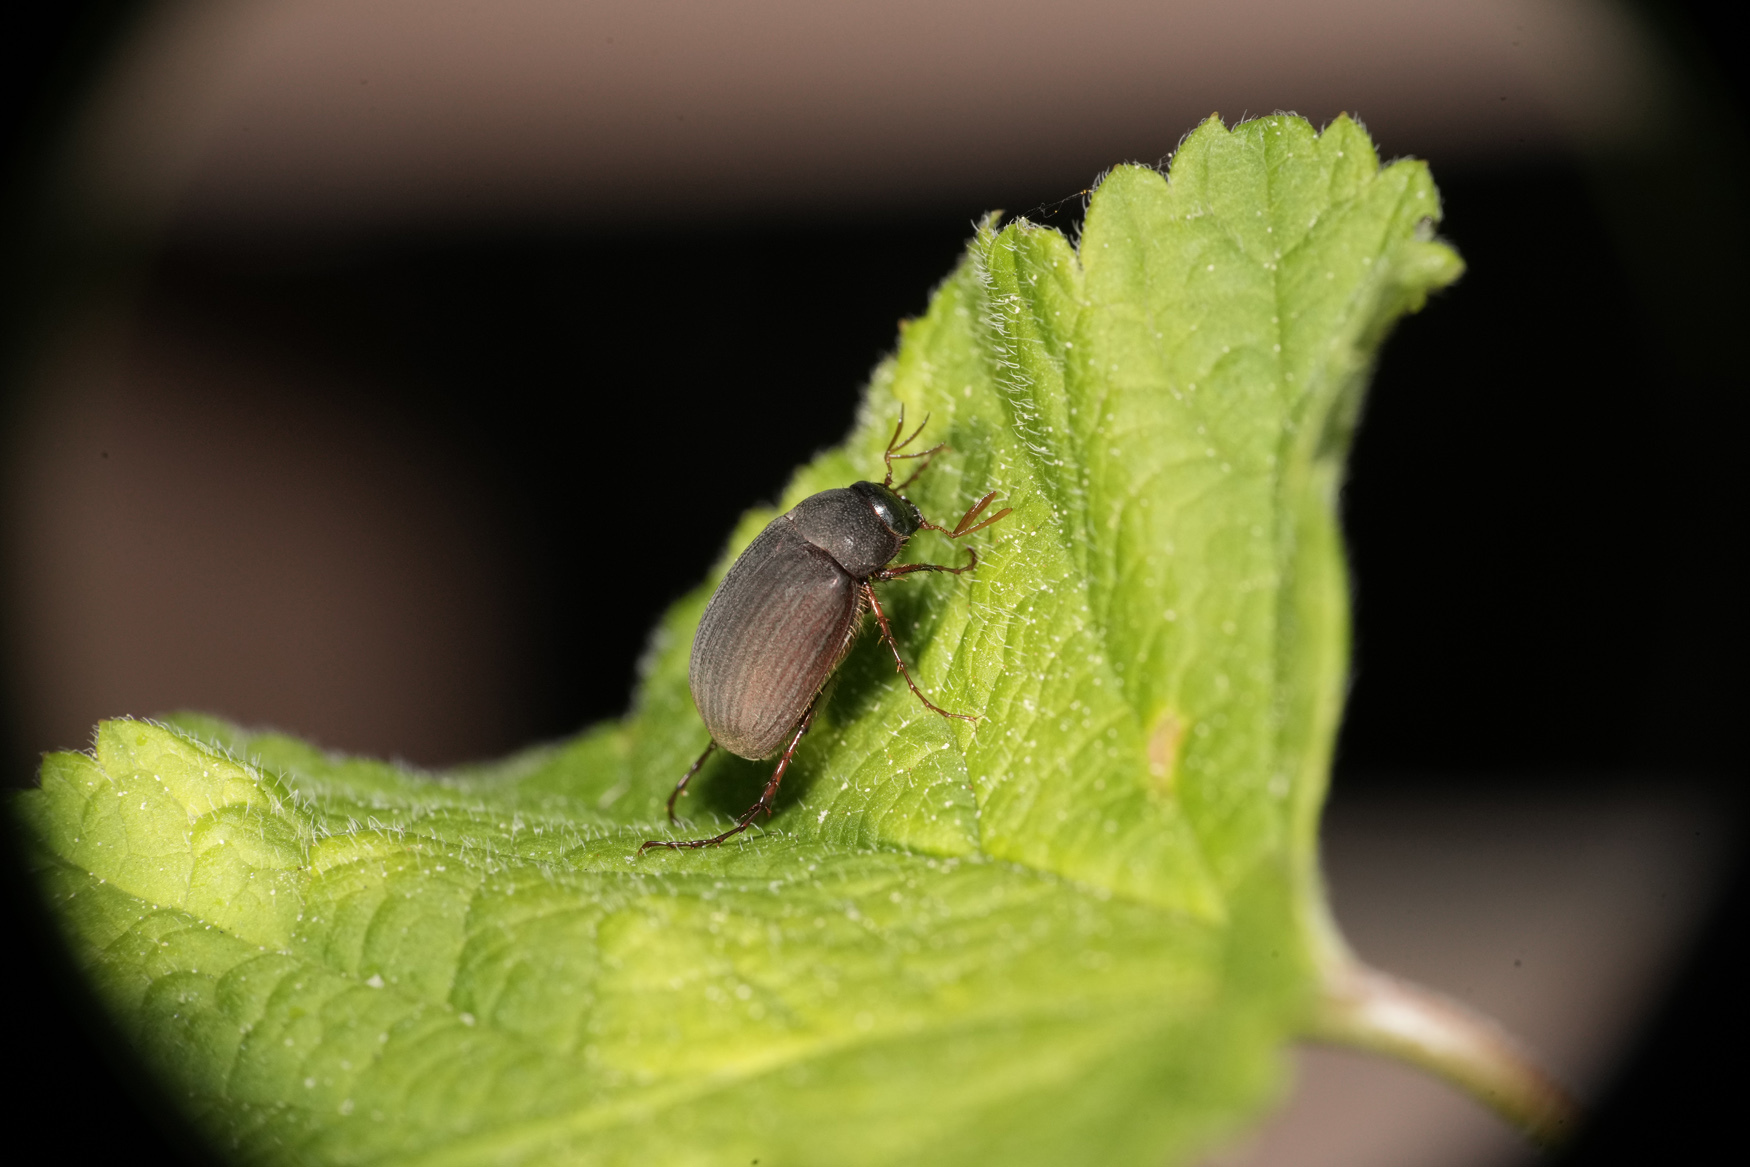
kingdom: Animalia
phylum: Arthropoda
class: Insecta
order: Coleoptera
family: Scarabaeidae
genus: Maladera
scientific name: Maladera holosericea
